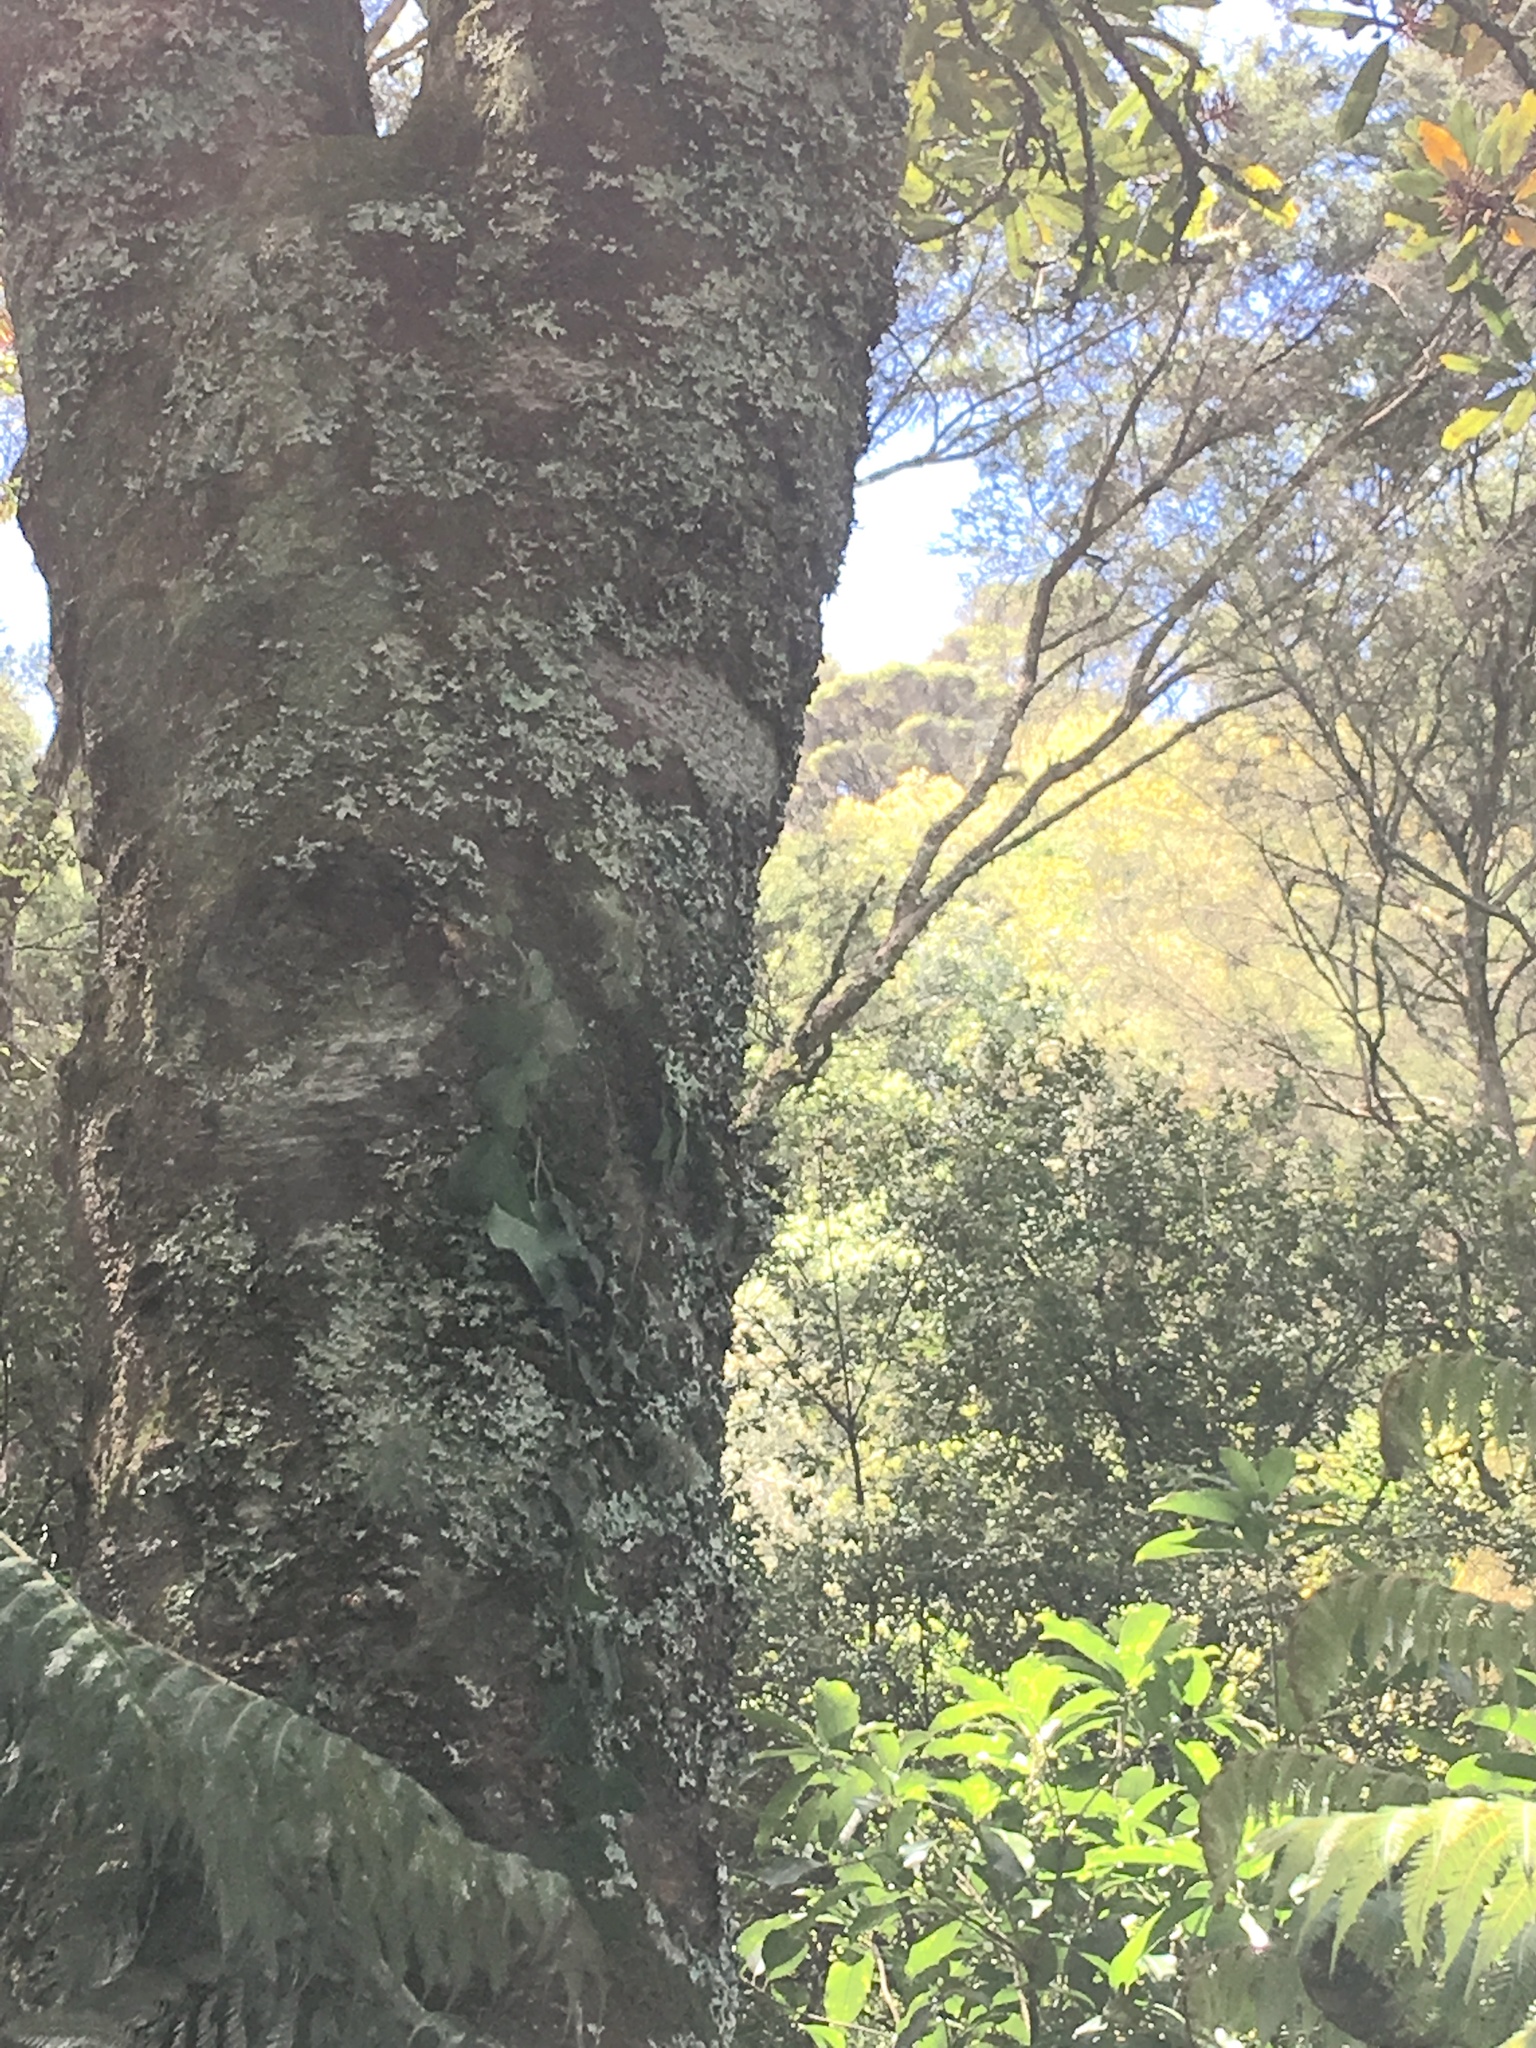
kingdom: Plantae
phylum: Tracheophyta
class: Magnoliopsida
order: Apiales
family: Araliaceae
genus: Hedera
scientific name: Hedera helix
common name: Ivy
